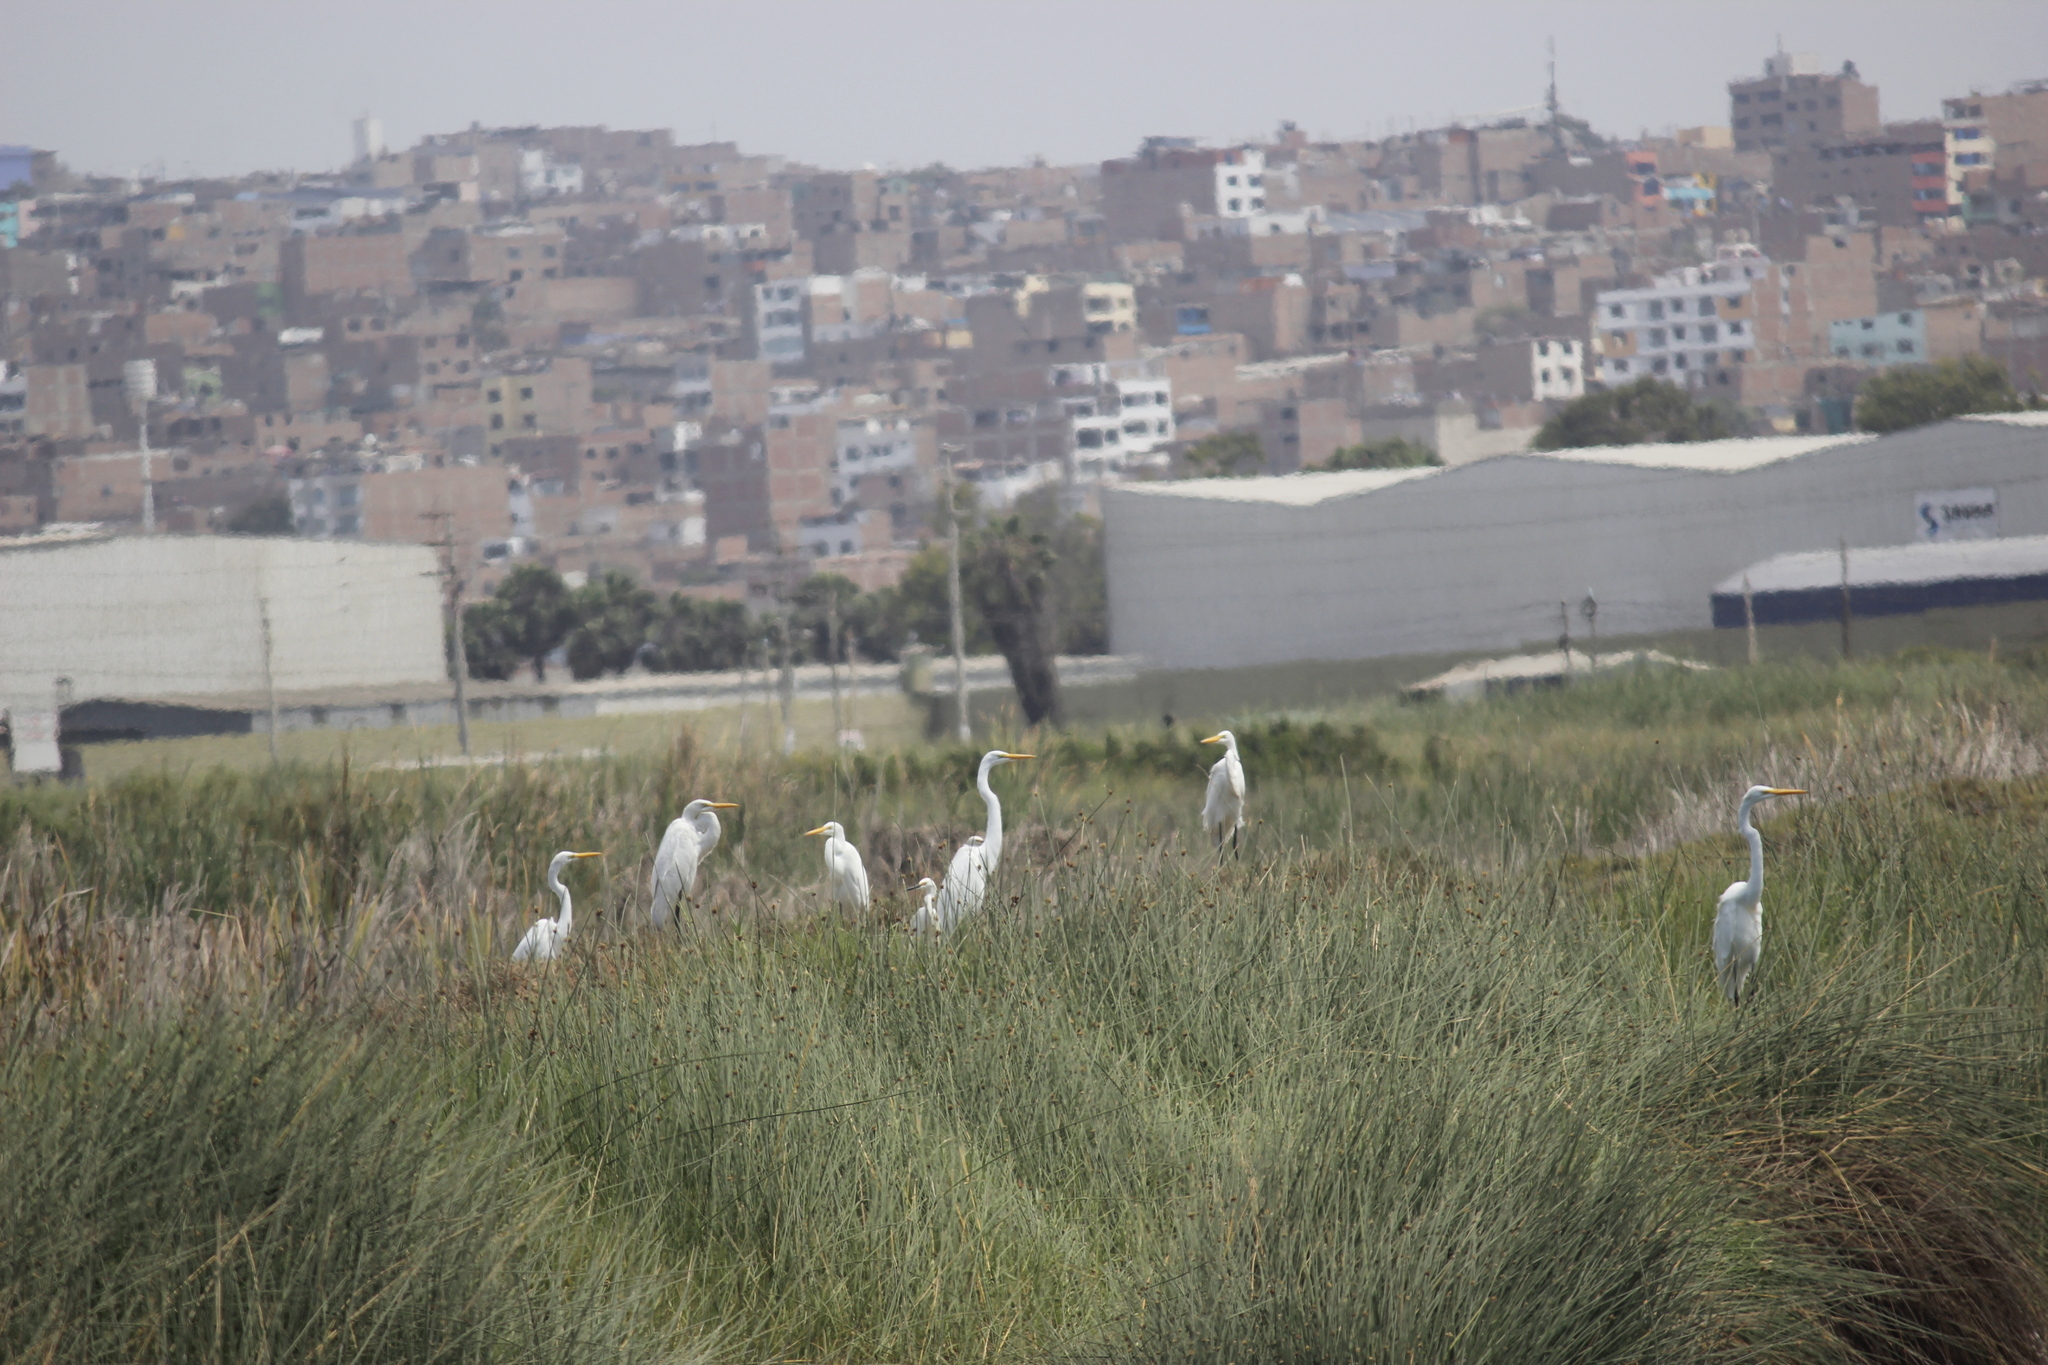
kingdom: Animalia
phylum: Chordata
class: Aves
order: Pelecaniformes
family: Ardeidae
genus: Ardea
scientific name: Ardea alba
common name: Great egret
